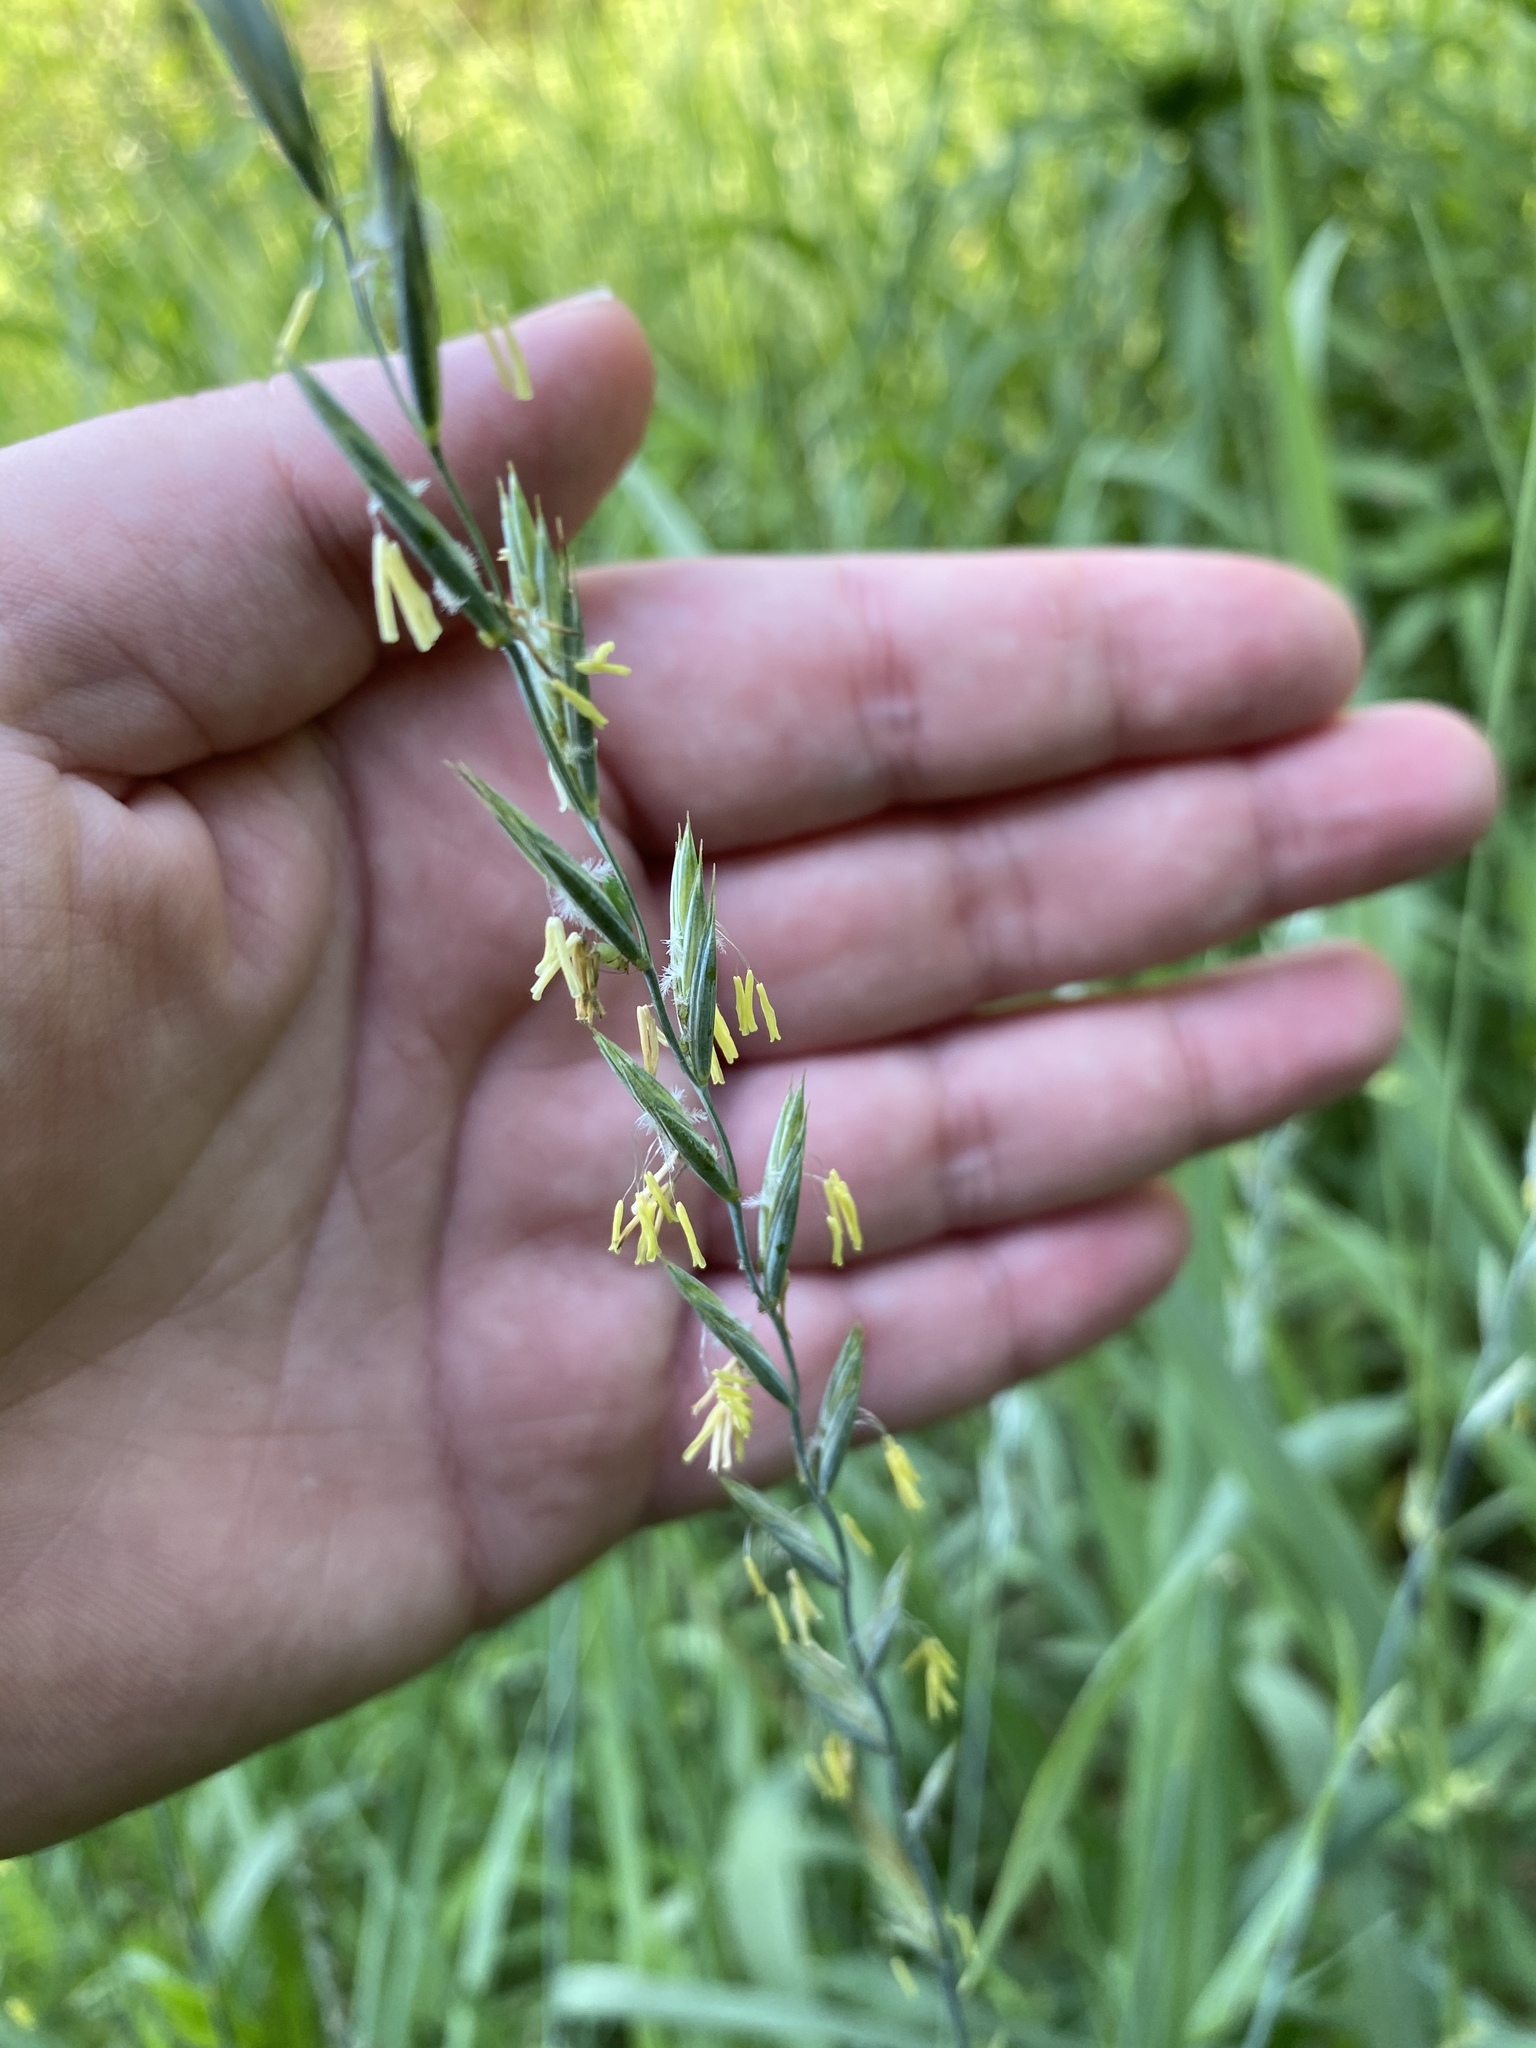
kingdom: Plantae
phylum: Tracheophyta
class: Liliopsida
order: Poales
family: Poaceae
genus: Elymus
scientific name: Elymus repens
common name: Quackgrass
